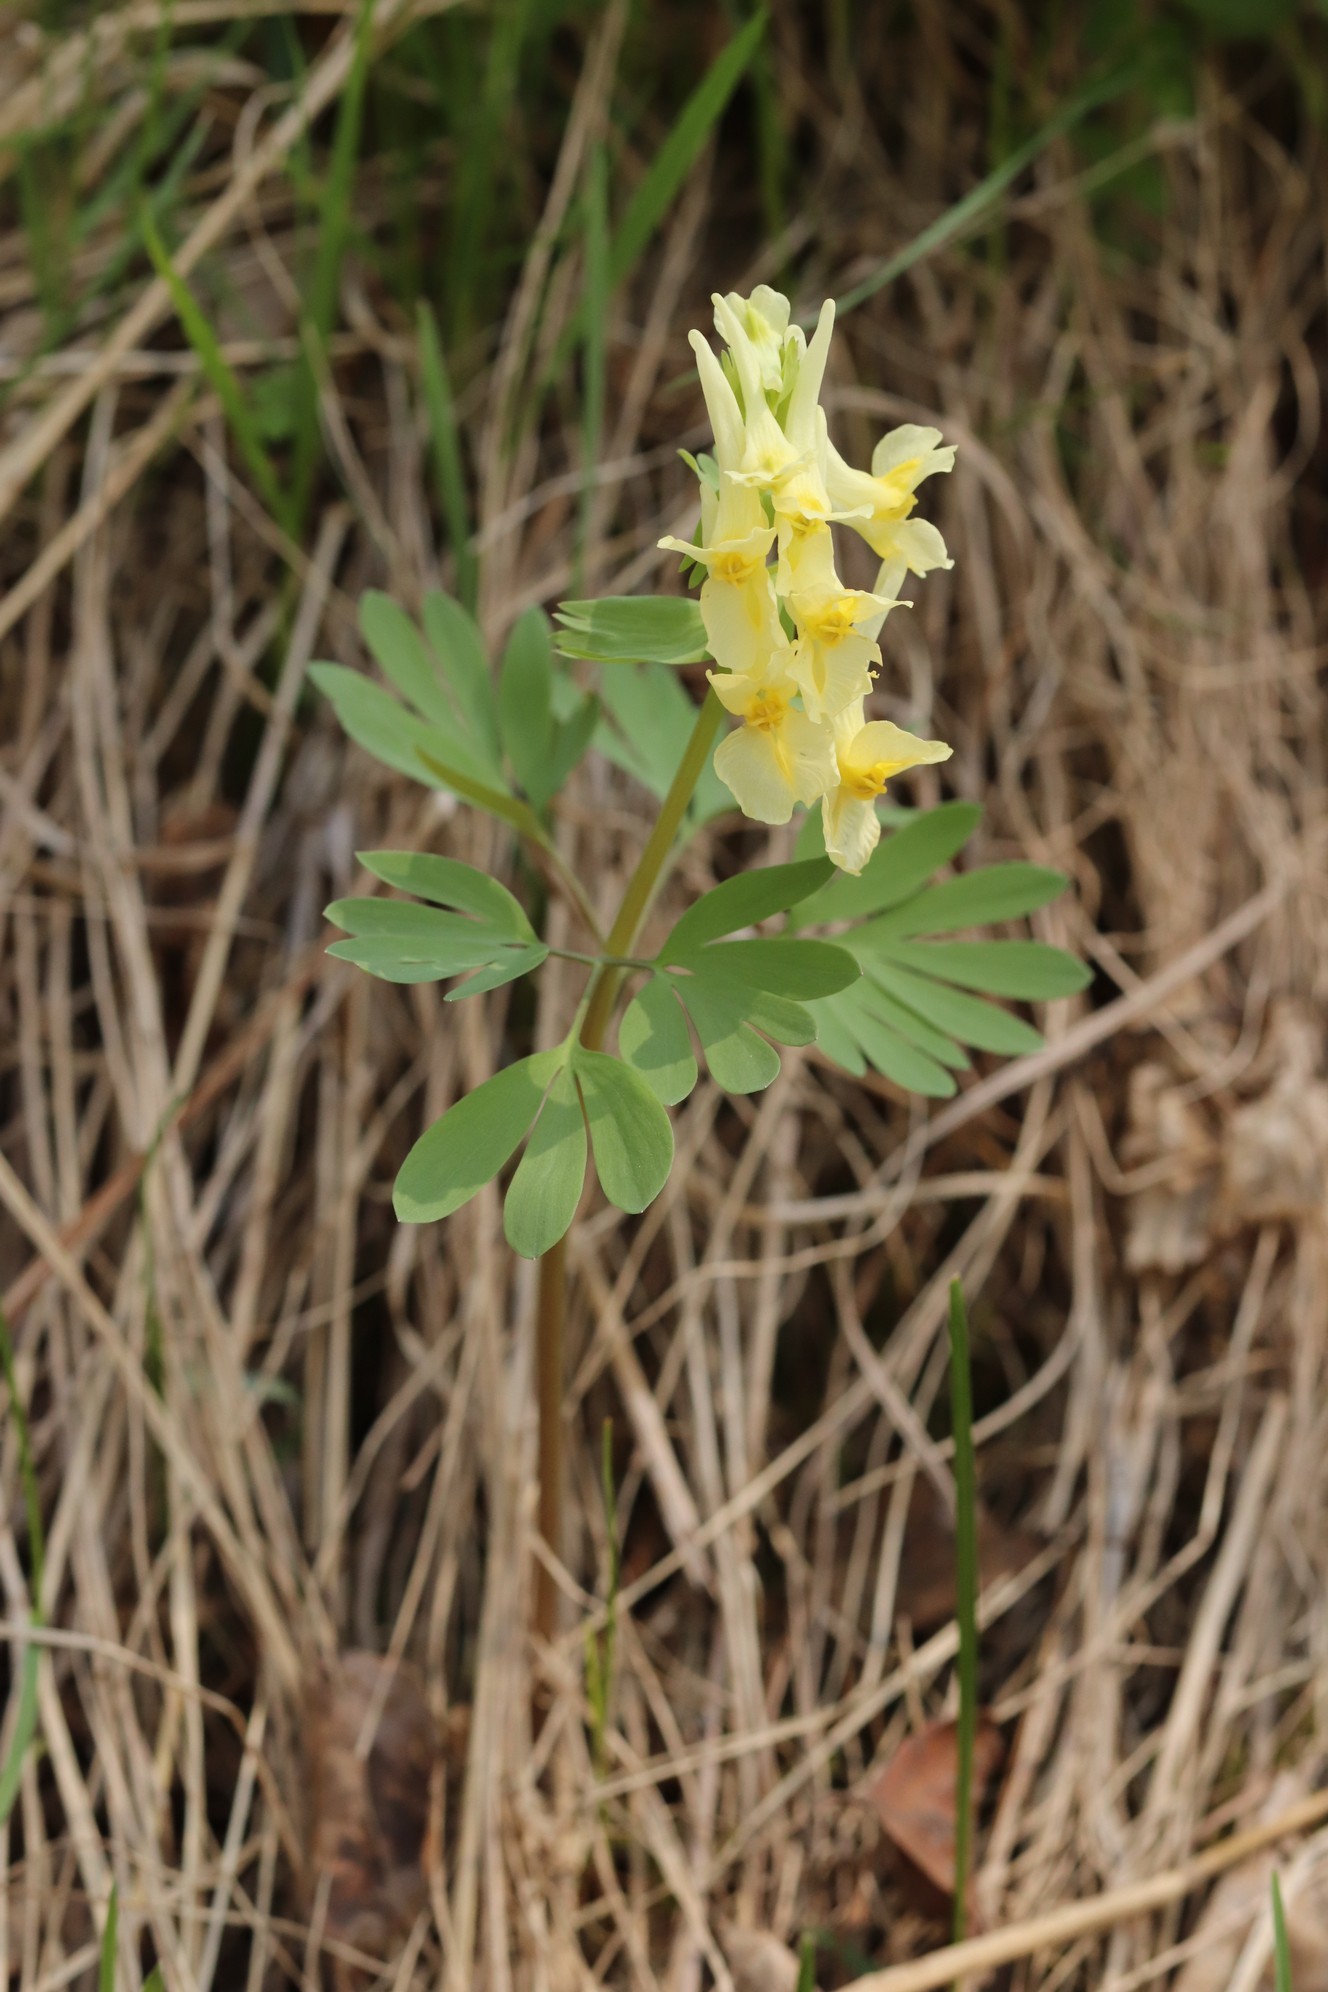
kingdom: Plantae
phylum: Tracheophyta
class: Magnoliopsida
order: Ranunculales
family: Papaveraceae
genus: Corydalis
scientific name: Corydalis bracteata
